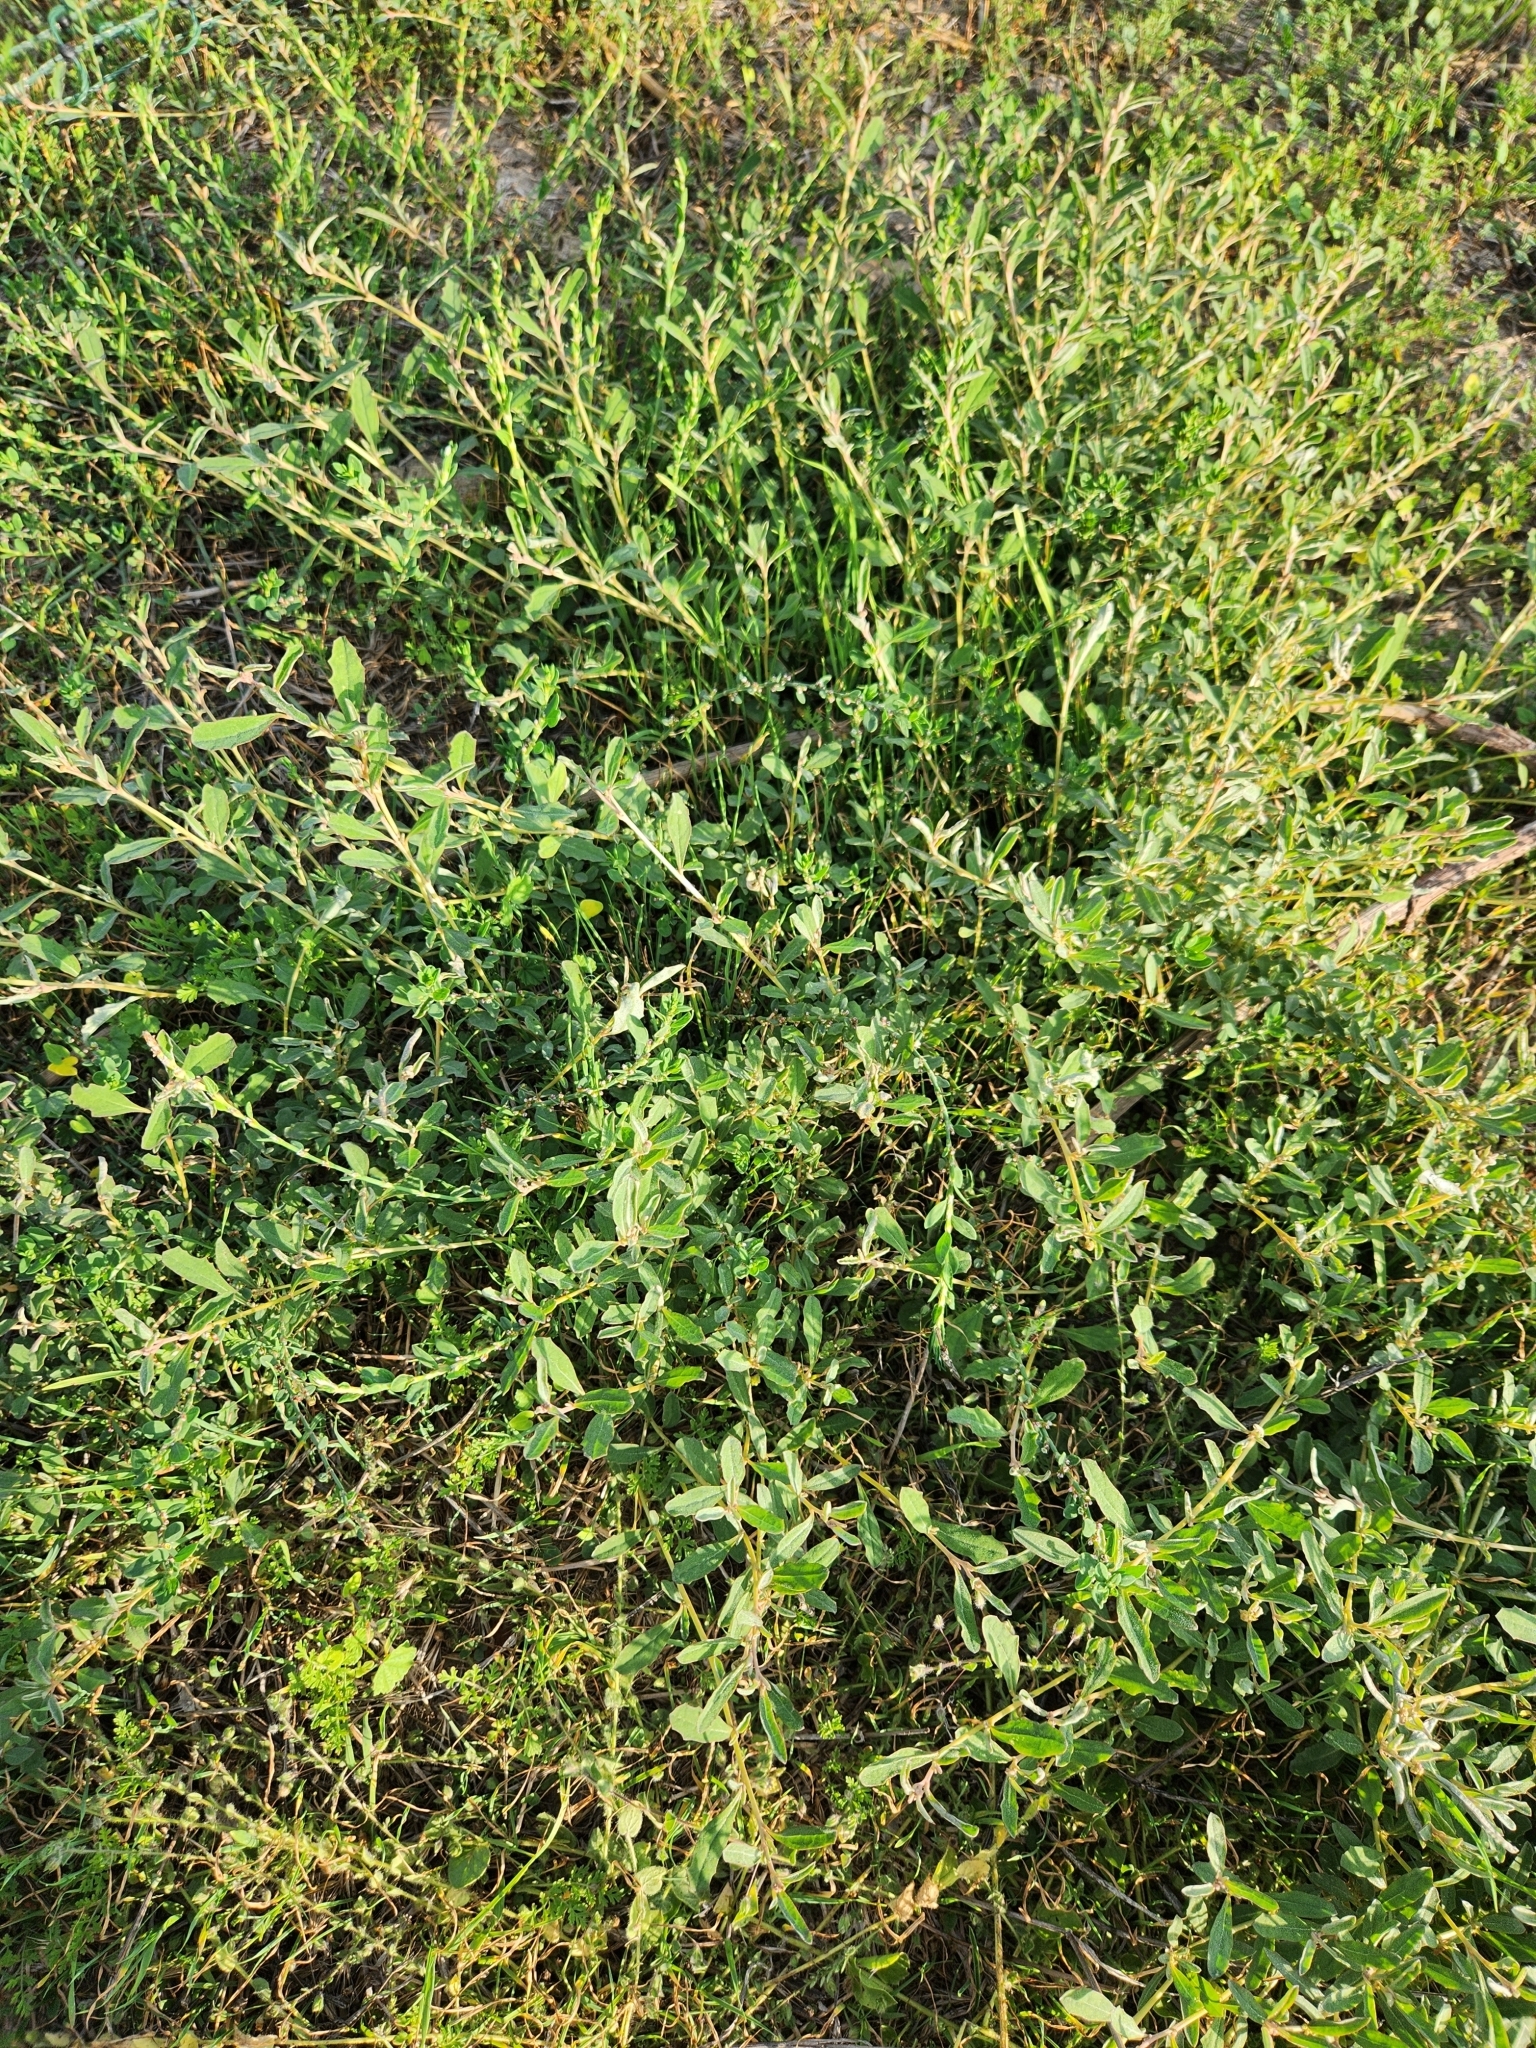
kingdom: Plantae
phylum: Tracheophyta
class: Magnoliopsida
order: Caryophyllales
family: Amaranthaceae
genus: Atriplex
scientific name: Atriplex semibaccata
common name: Australian saltbush
